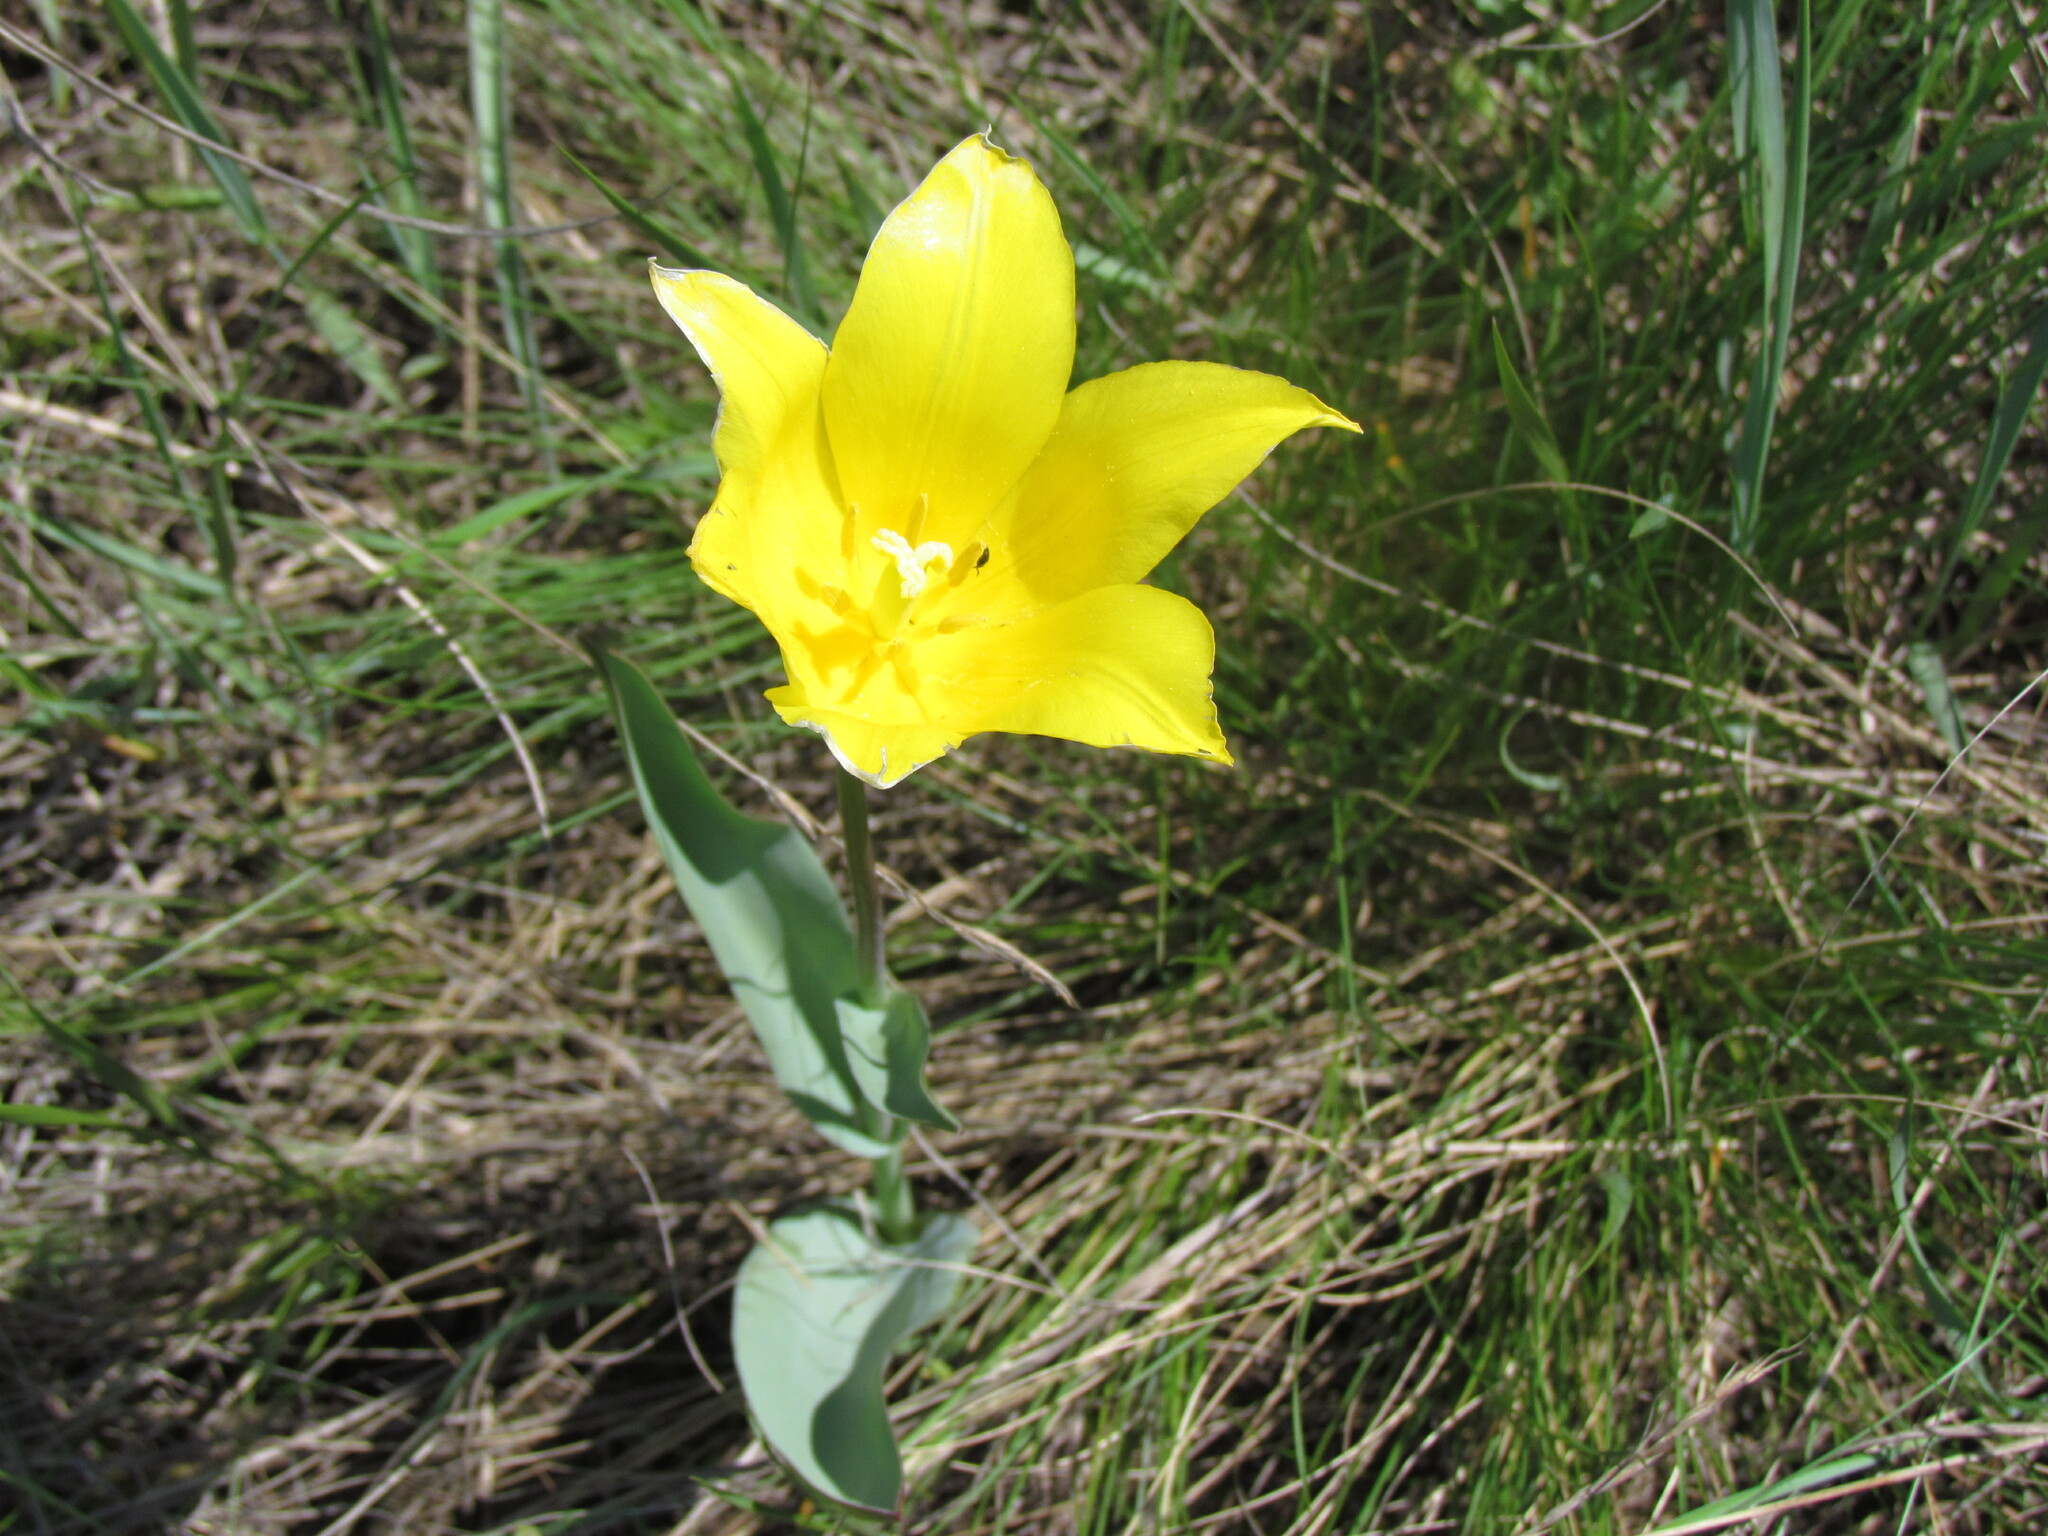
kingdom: Plantae
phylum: Tracheophyta
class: Liliopsida
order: Liliales
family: Liliaceae
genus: Tulipa
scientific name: Tulipa suaveolens
